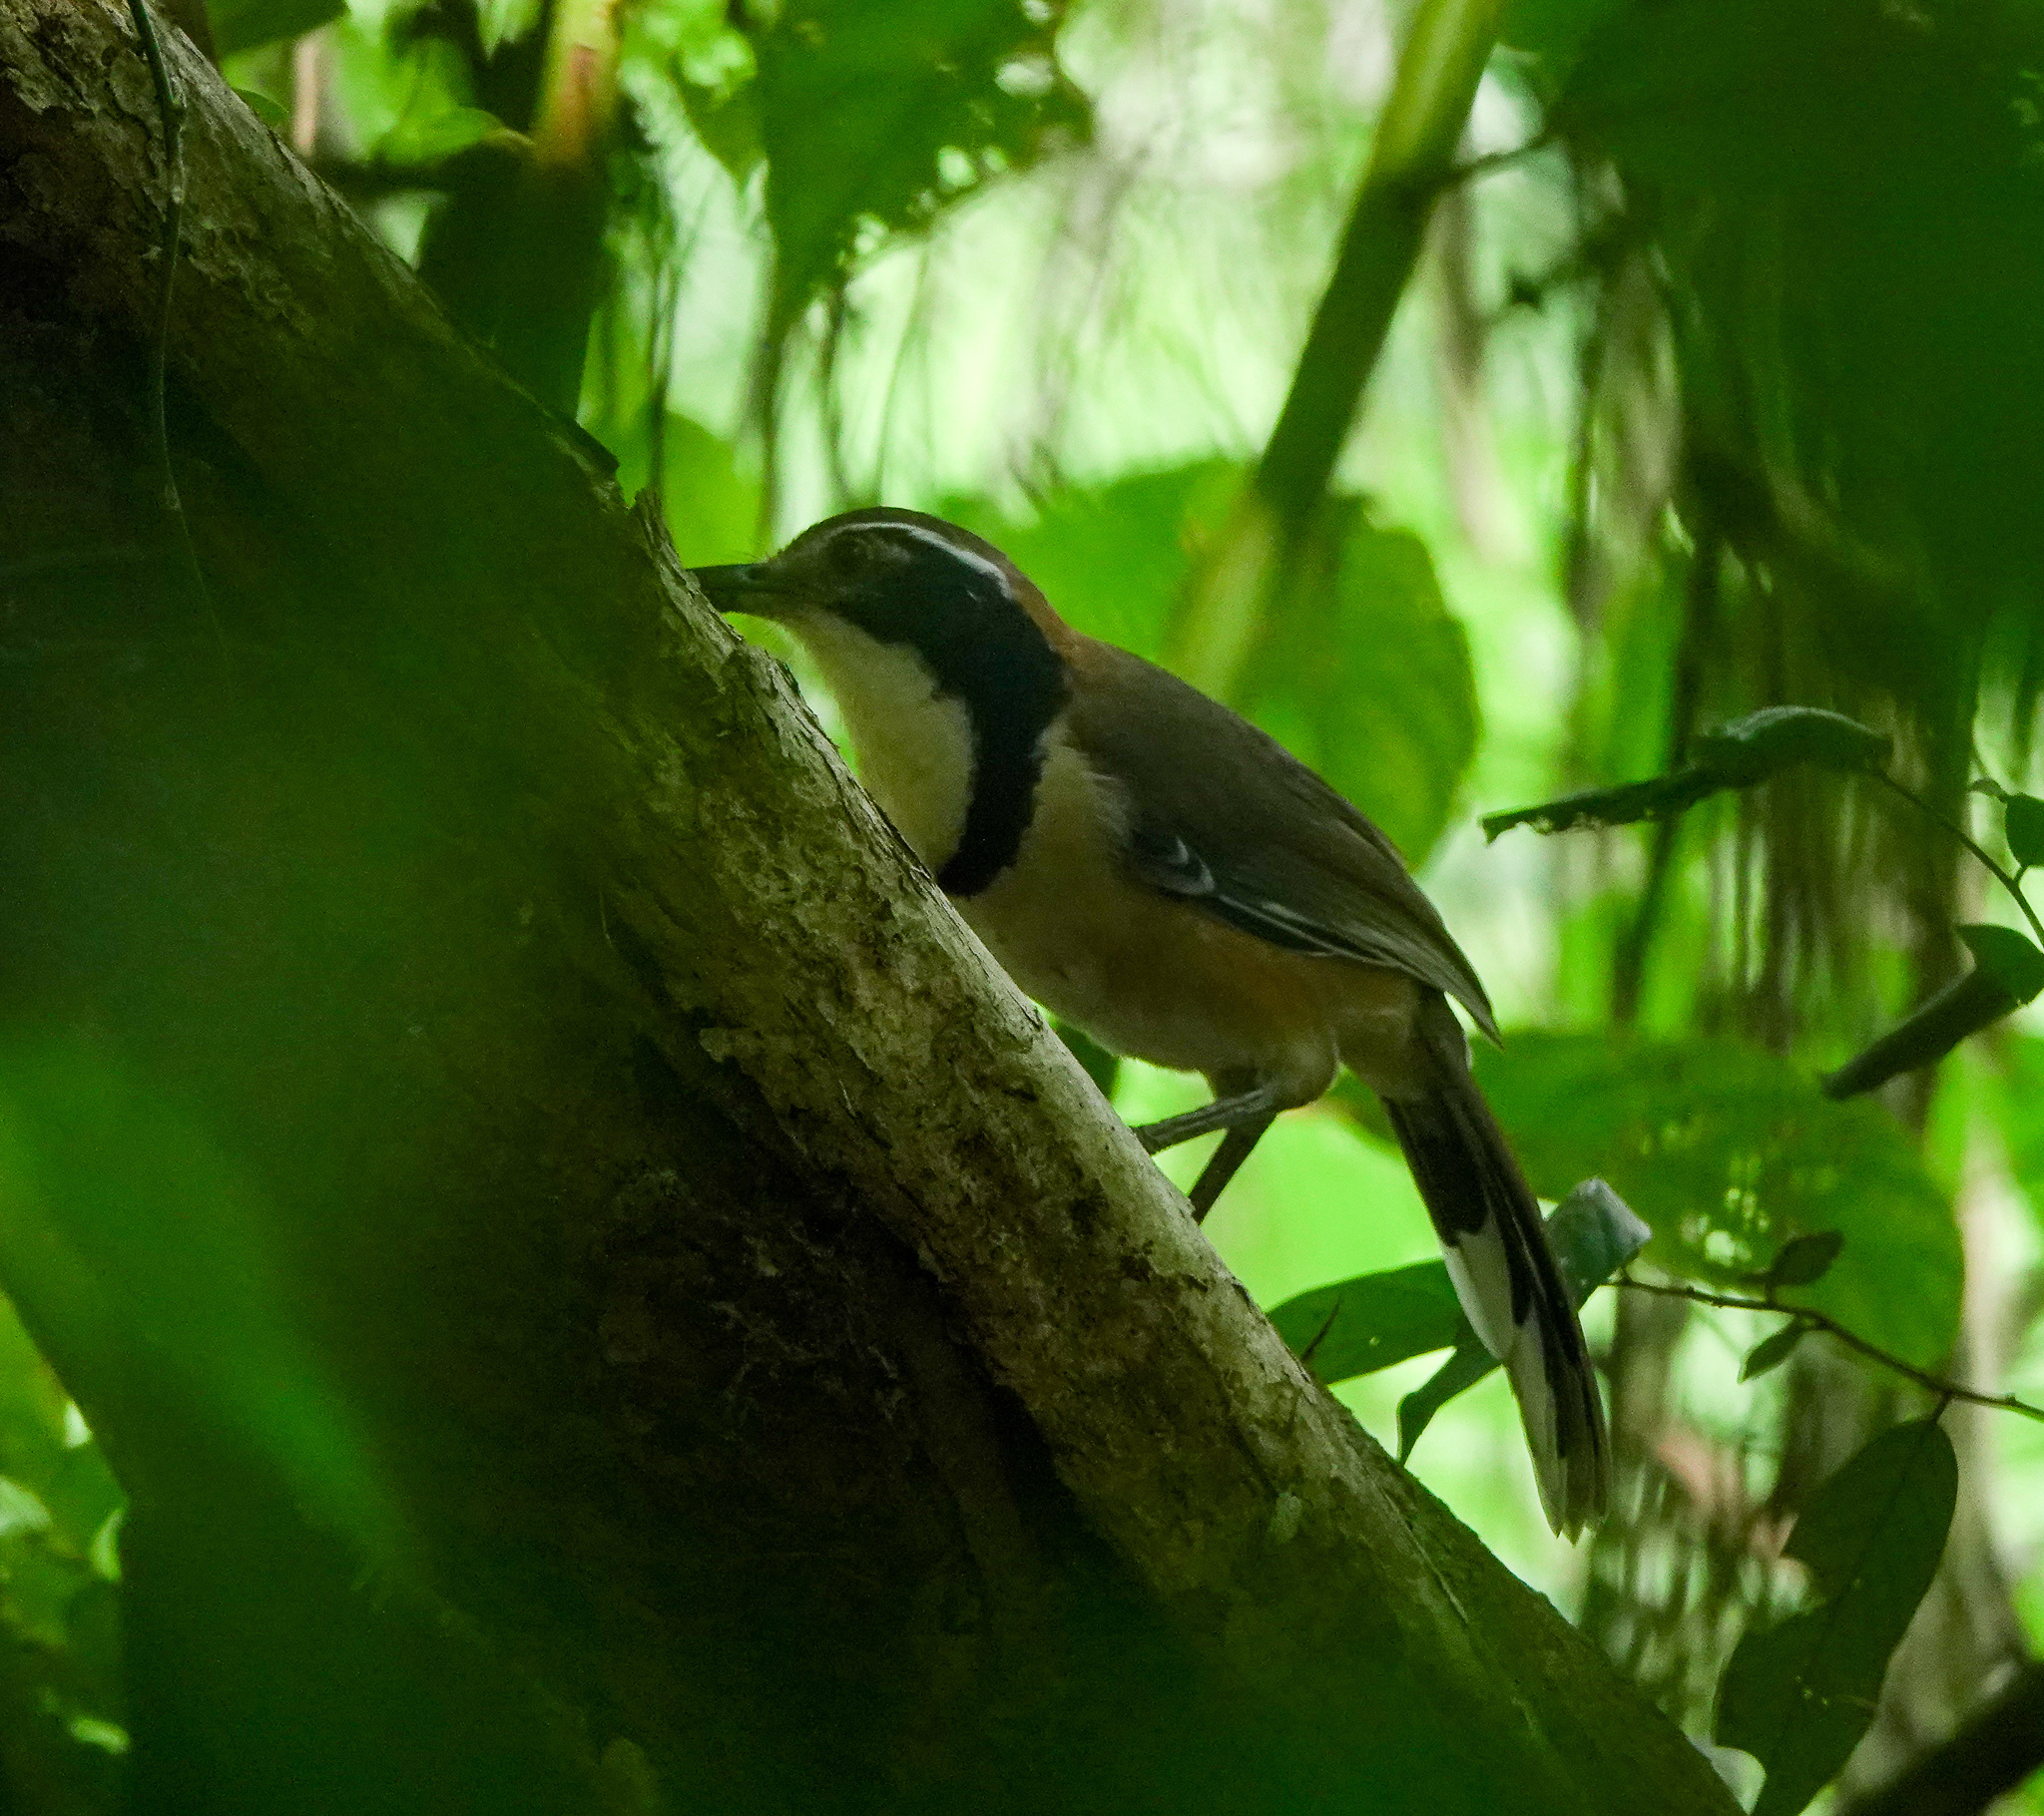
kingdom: Animalia
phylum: Chordata
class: Aves
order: Passeriformes
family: Leiothrichidae
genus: Garrulax
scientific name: Garrulax pectoralis
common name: Greater necklaced laughingthrush
